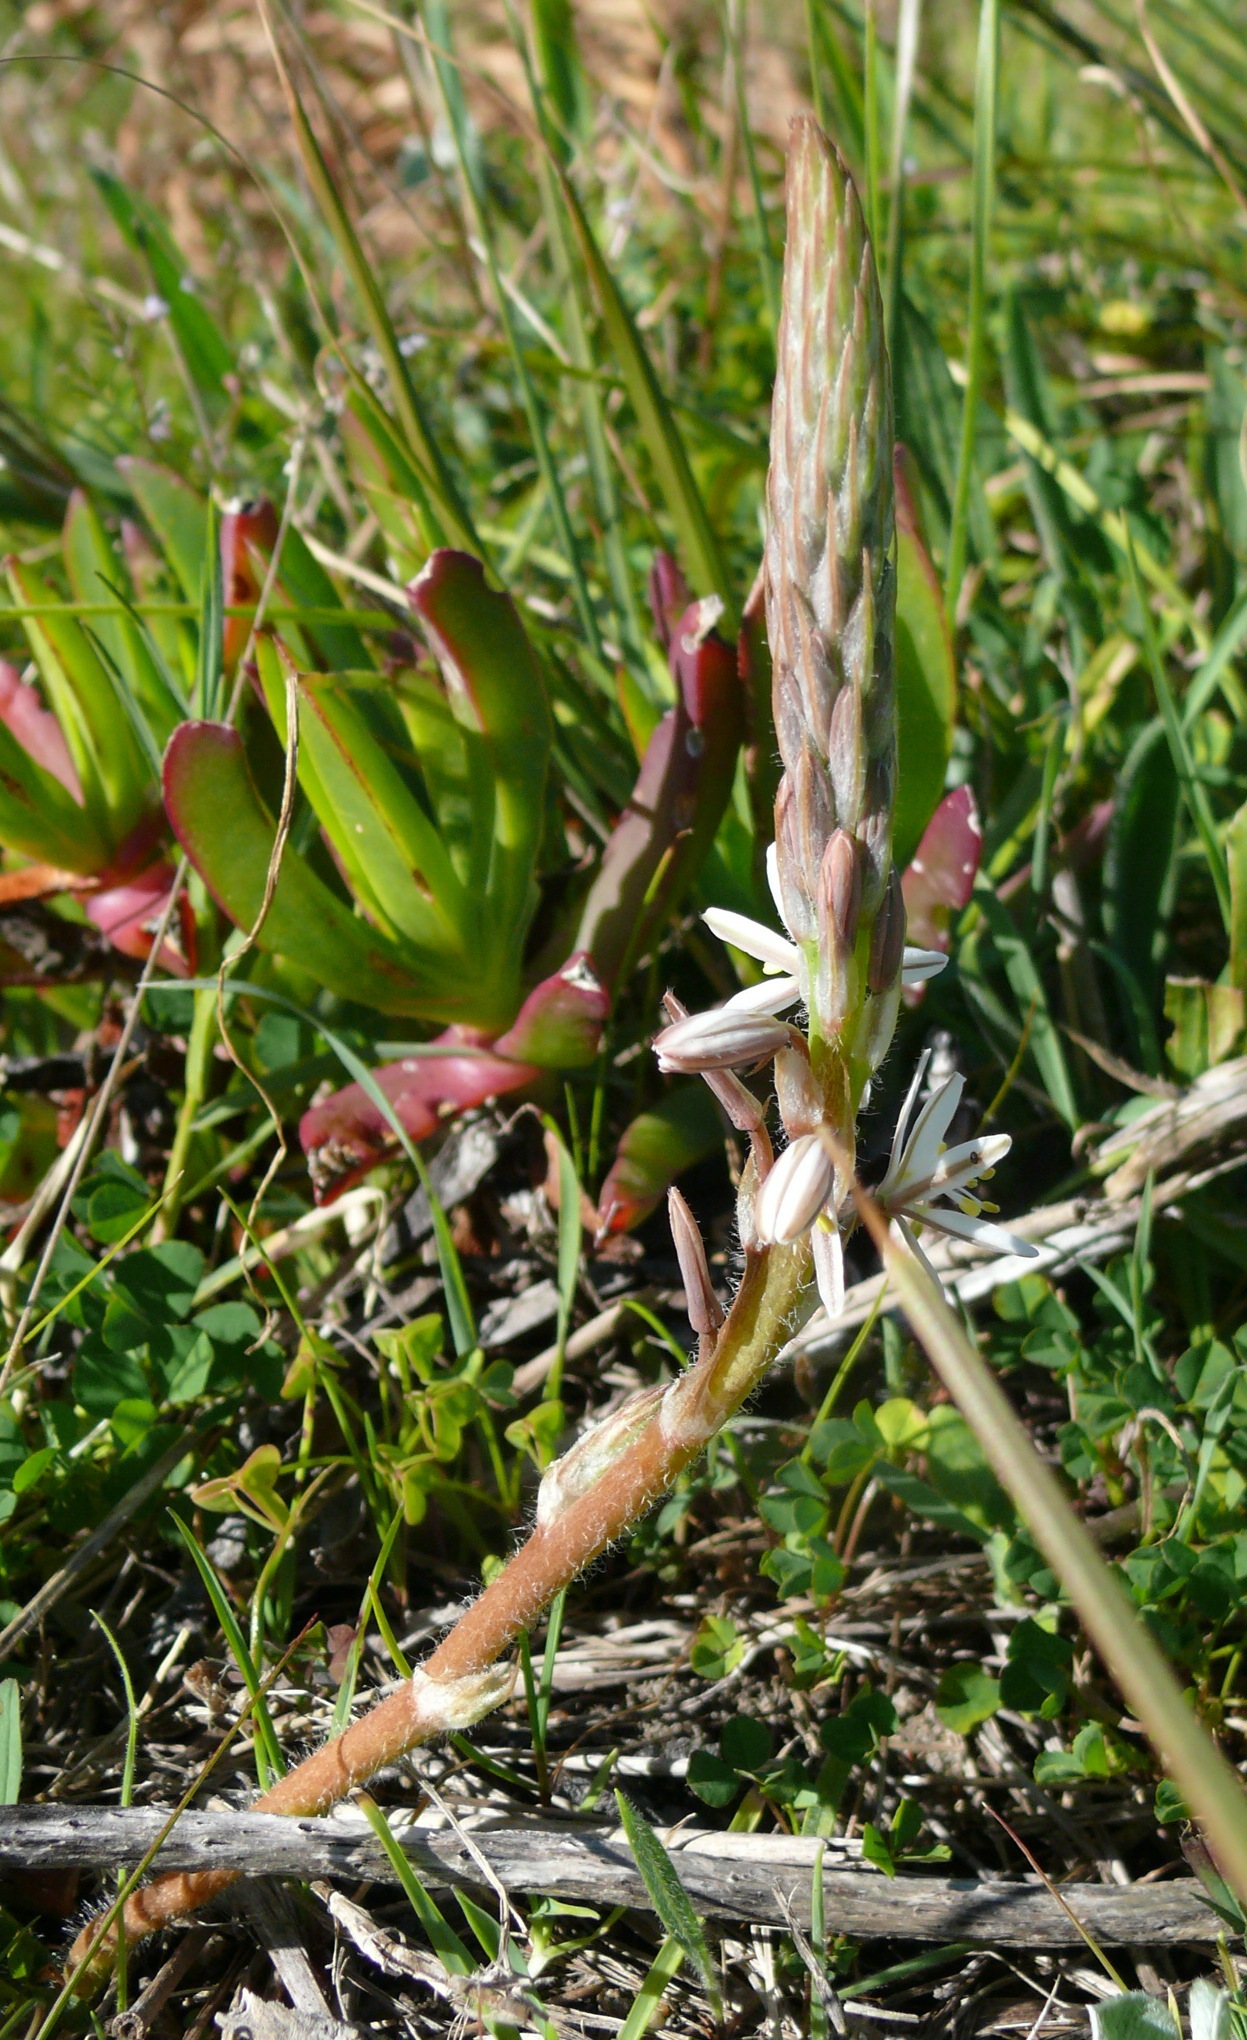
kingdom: Plantae
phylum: Tracheophyta
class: Liliopsida
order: Asparagales
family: Asphodelaceae
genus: Trachyandra
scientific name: Trachyandra ciliata
